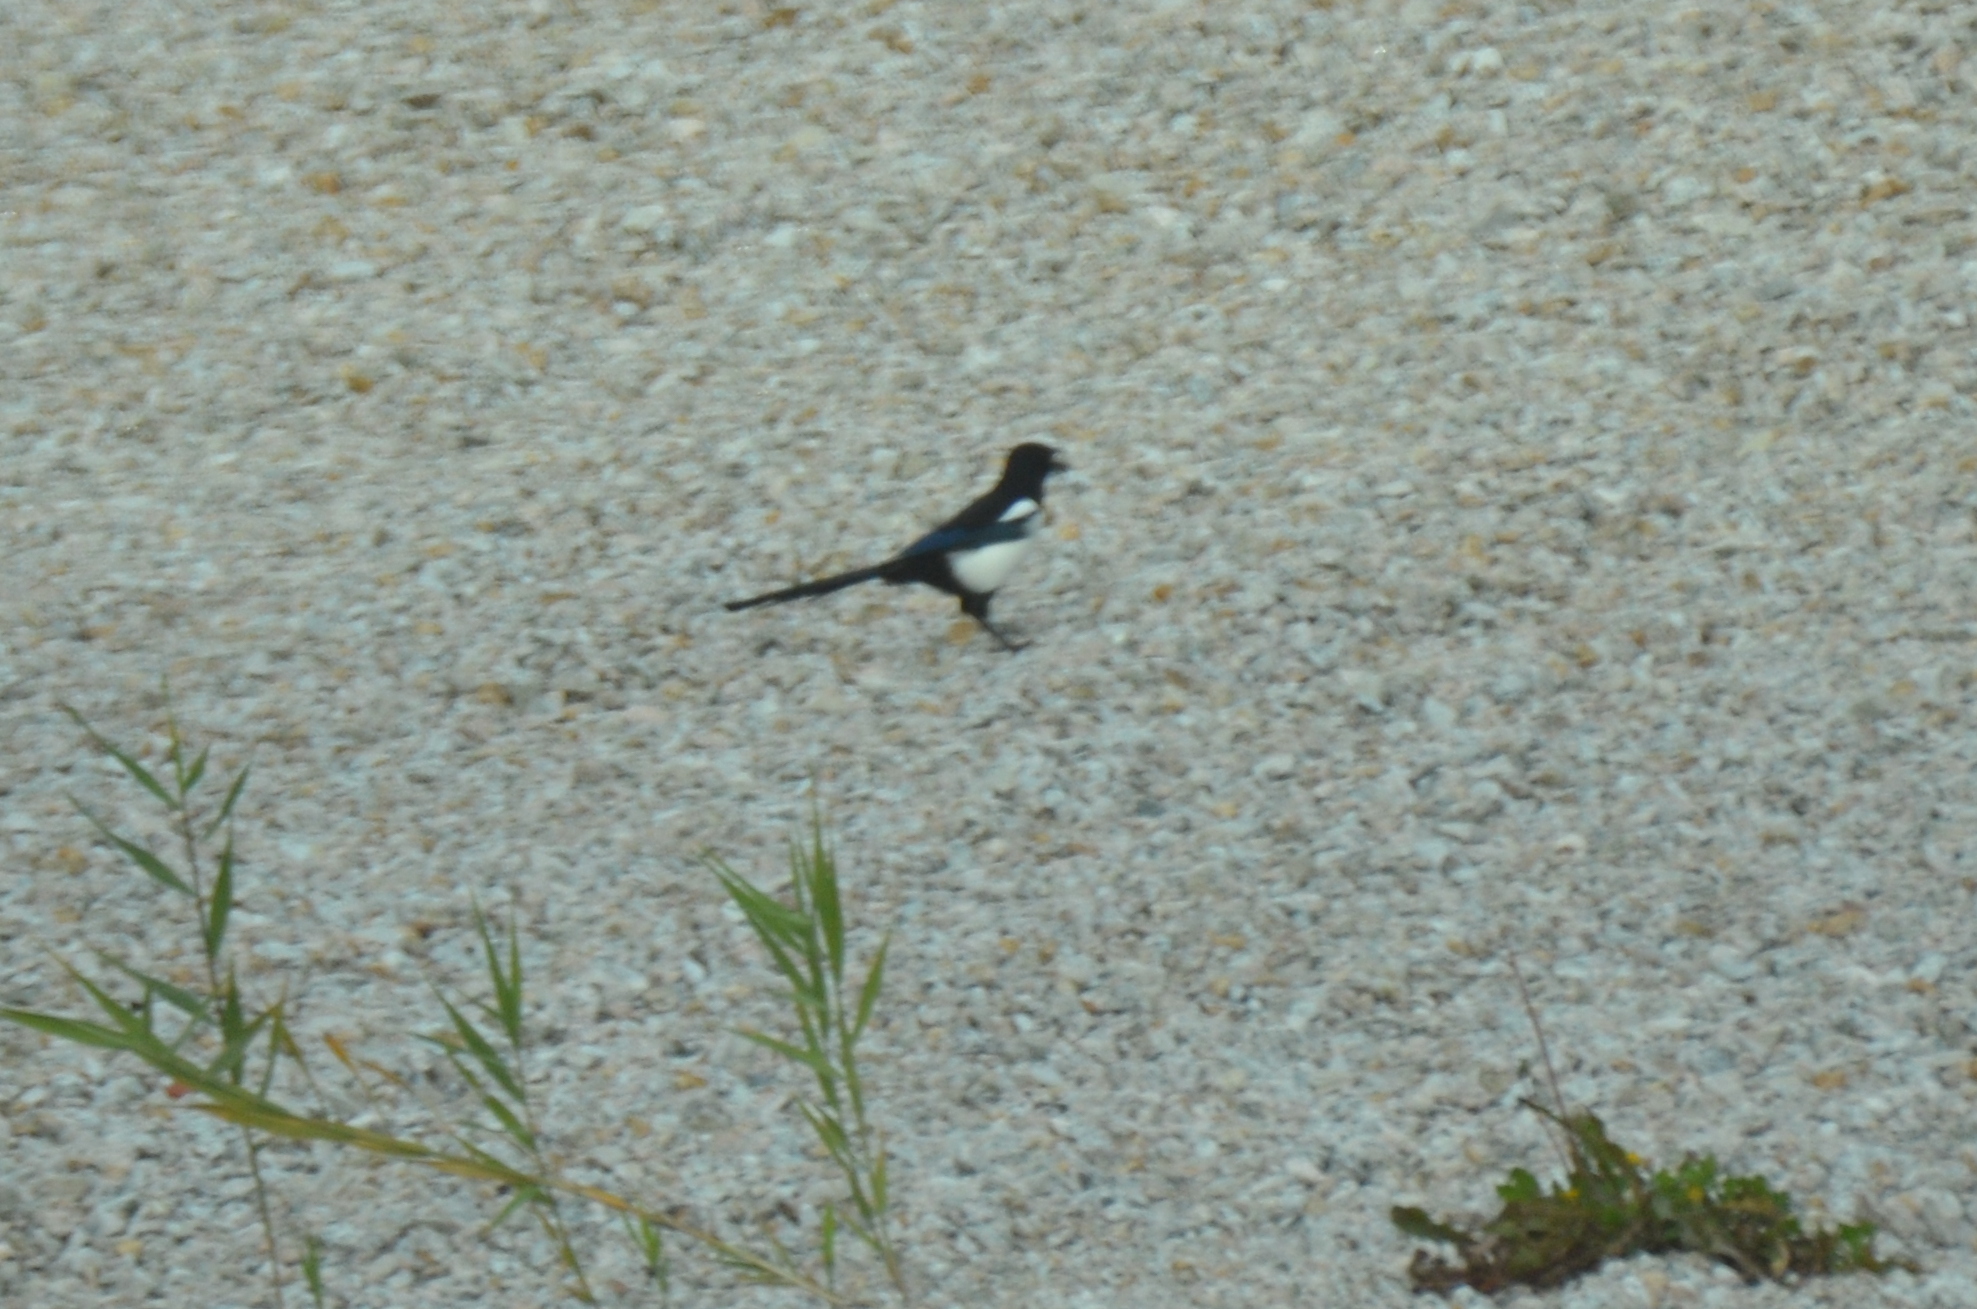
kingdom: Animalia
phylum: Chordata
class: Aves
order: Passeriformes
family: Corvidae
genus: Pica
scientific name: Pica serica
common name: Oriental magpie
